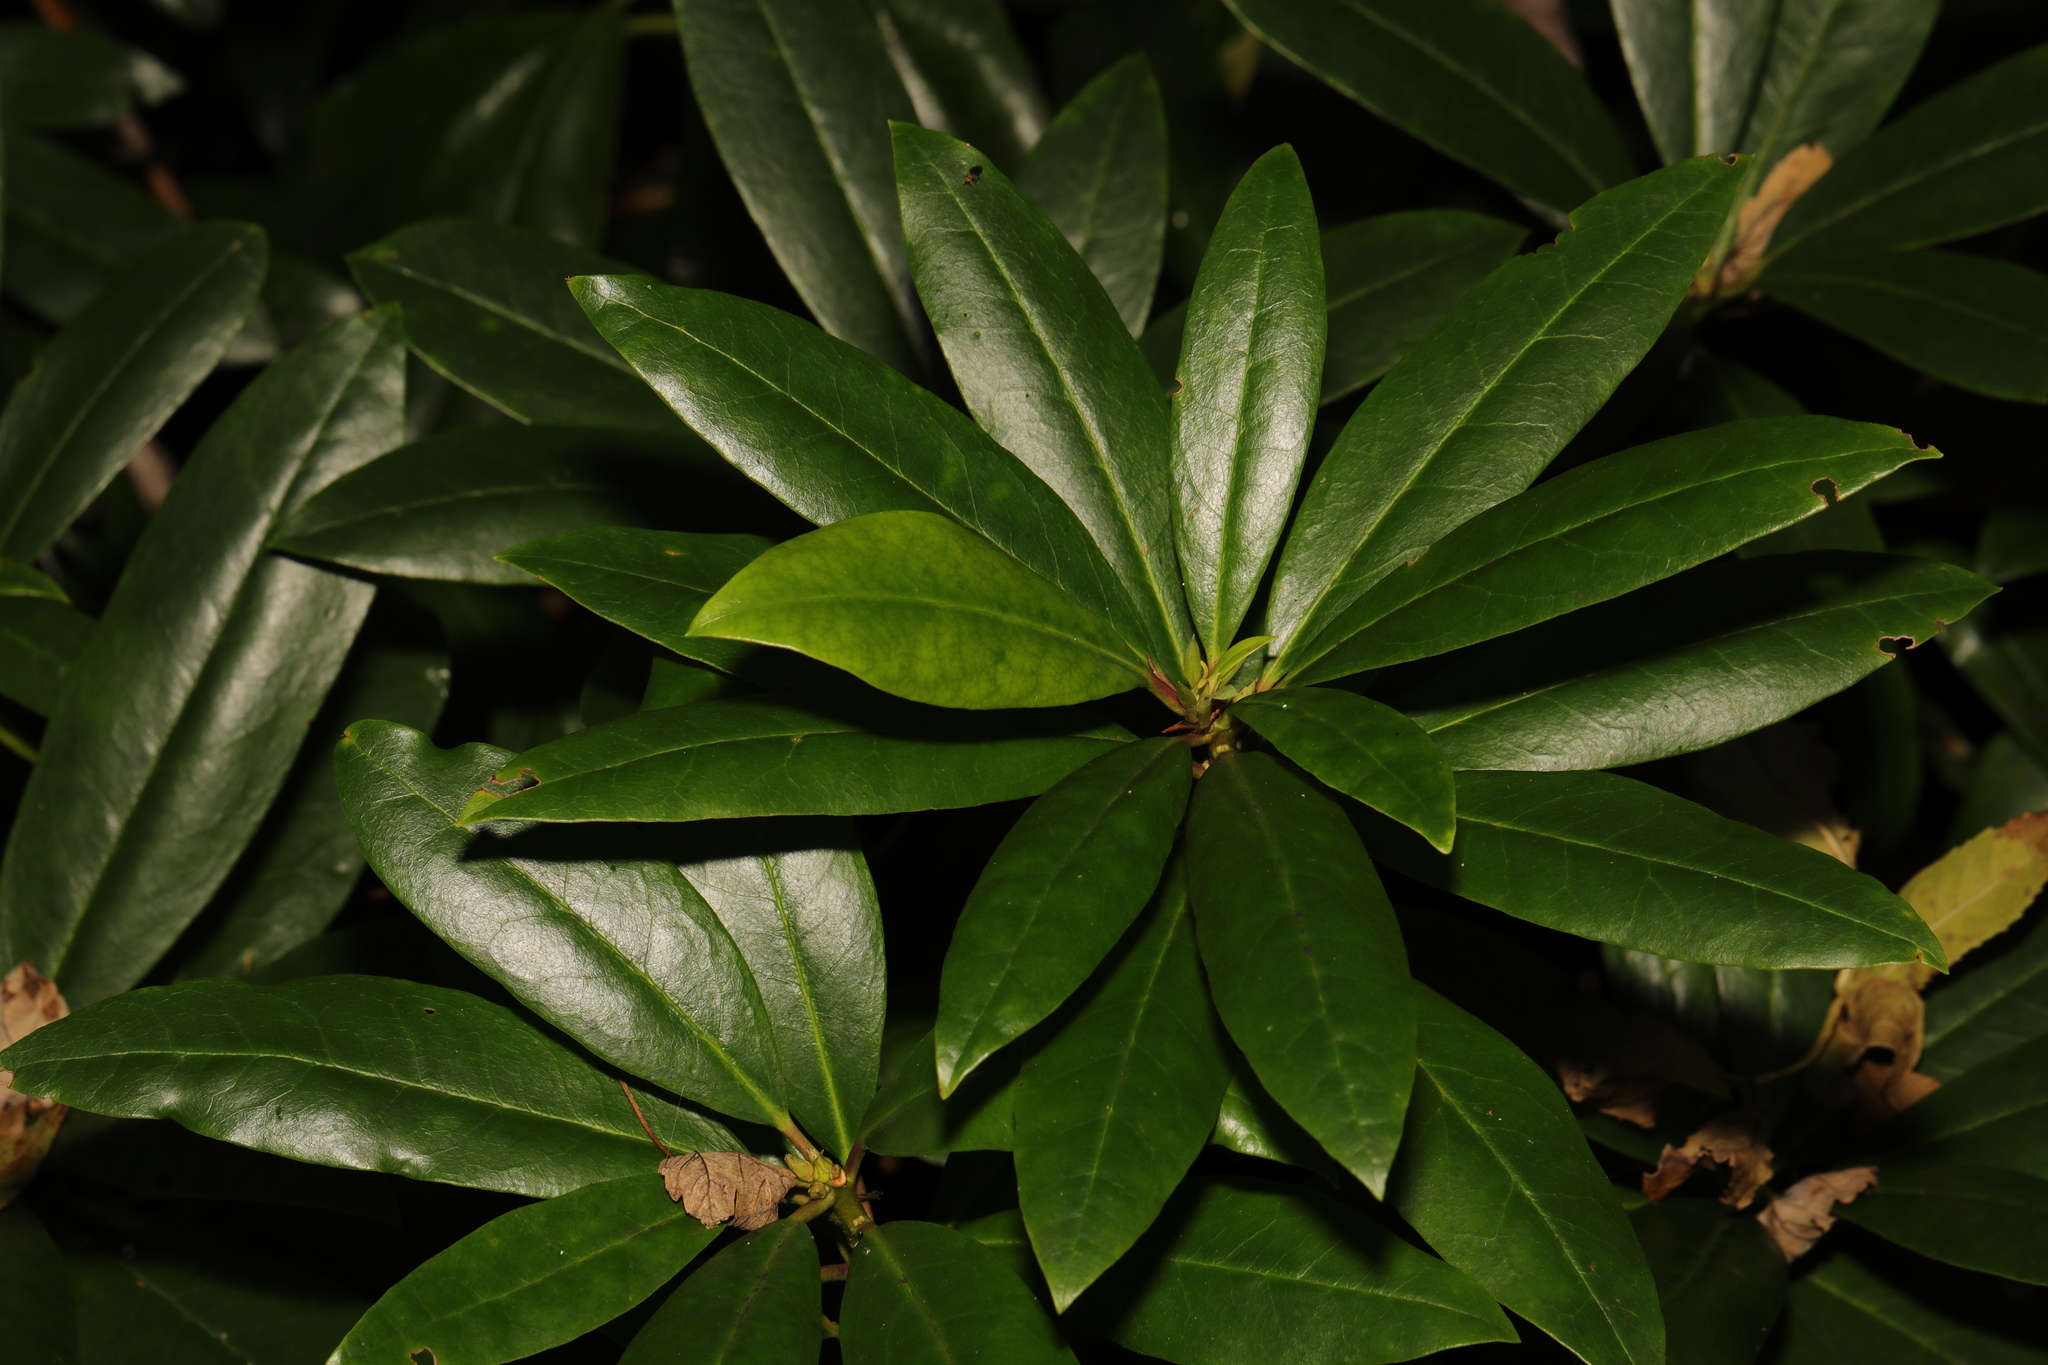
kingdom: Plantae
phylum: Tracheophyta
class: Magnoliopsida
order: Ericales
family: Ericaceae
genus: Rhododendron
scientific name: Rhododendron ponticum
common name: Rhododendron
